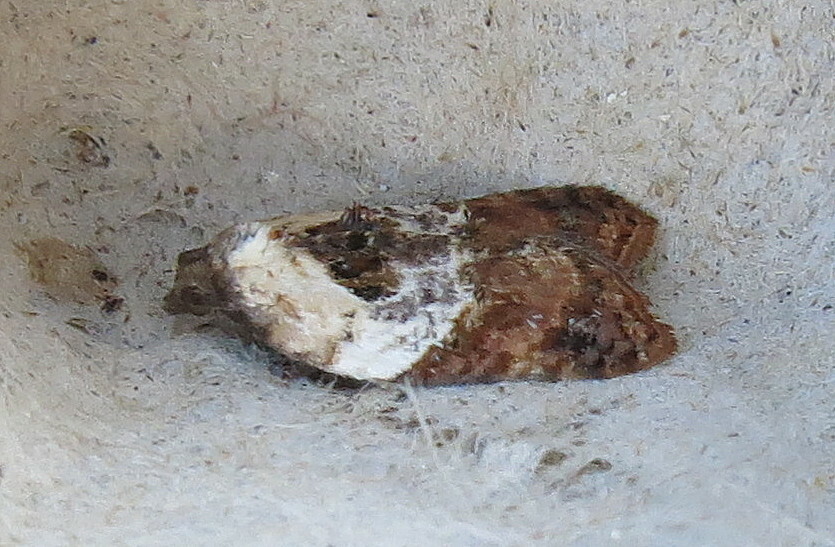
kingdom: Animalia
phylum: Arthropoda
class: Insecta
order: Lepidoptera
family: Tortricidae
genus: Acleris
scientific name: Acleris variegana
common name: Garden rose tortrix
